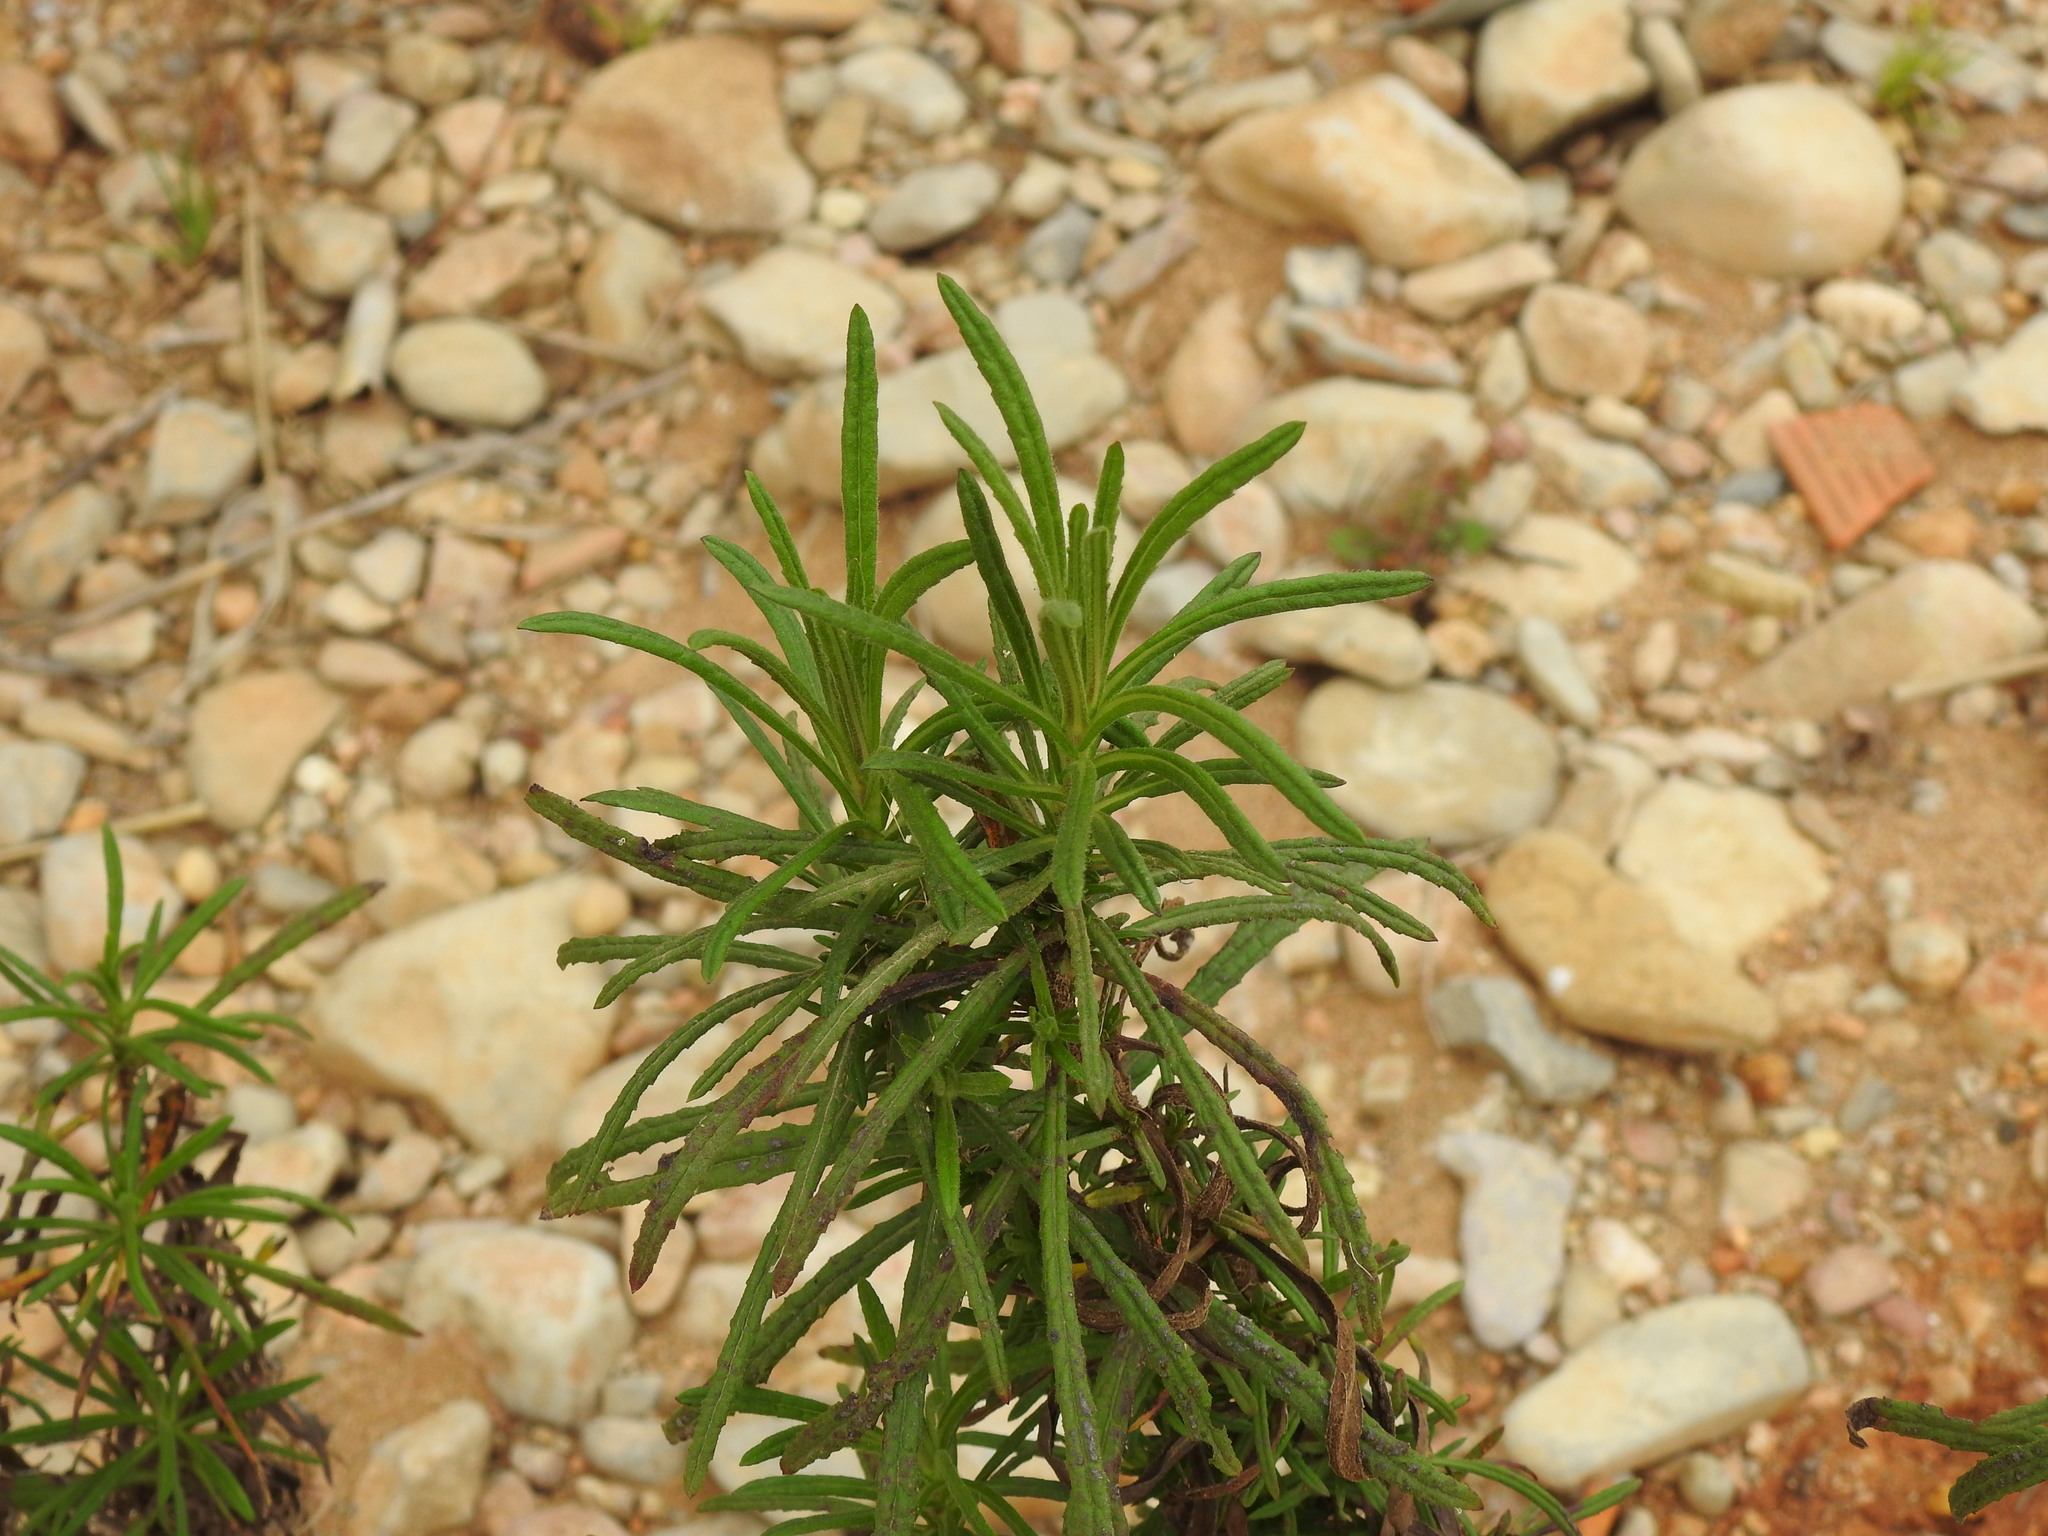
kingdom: Plantae
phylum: Tracheophyta
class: Magnoliopsida
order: Asterales
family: Asteraceae
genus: Dittrichia
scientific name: Dittrichia viscosa
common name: Woody fleabane
